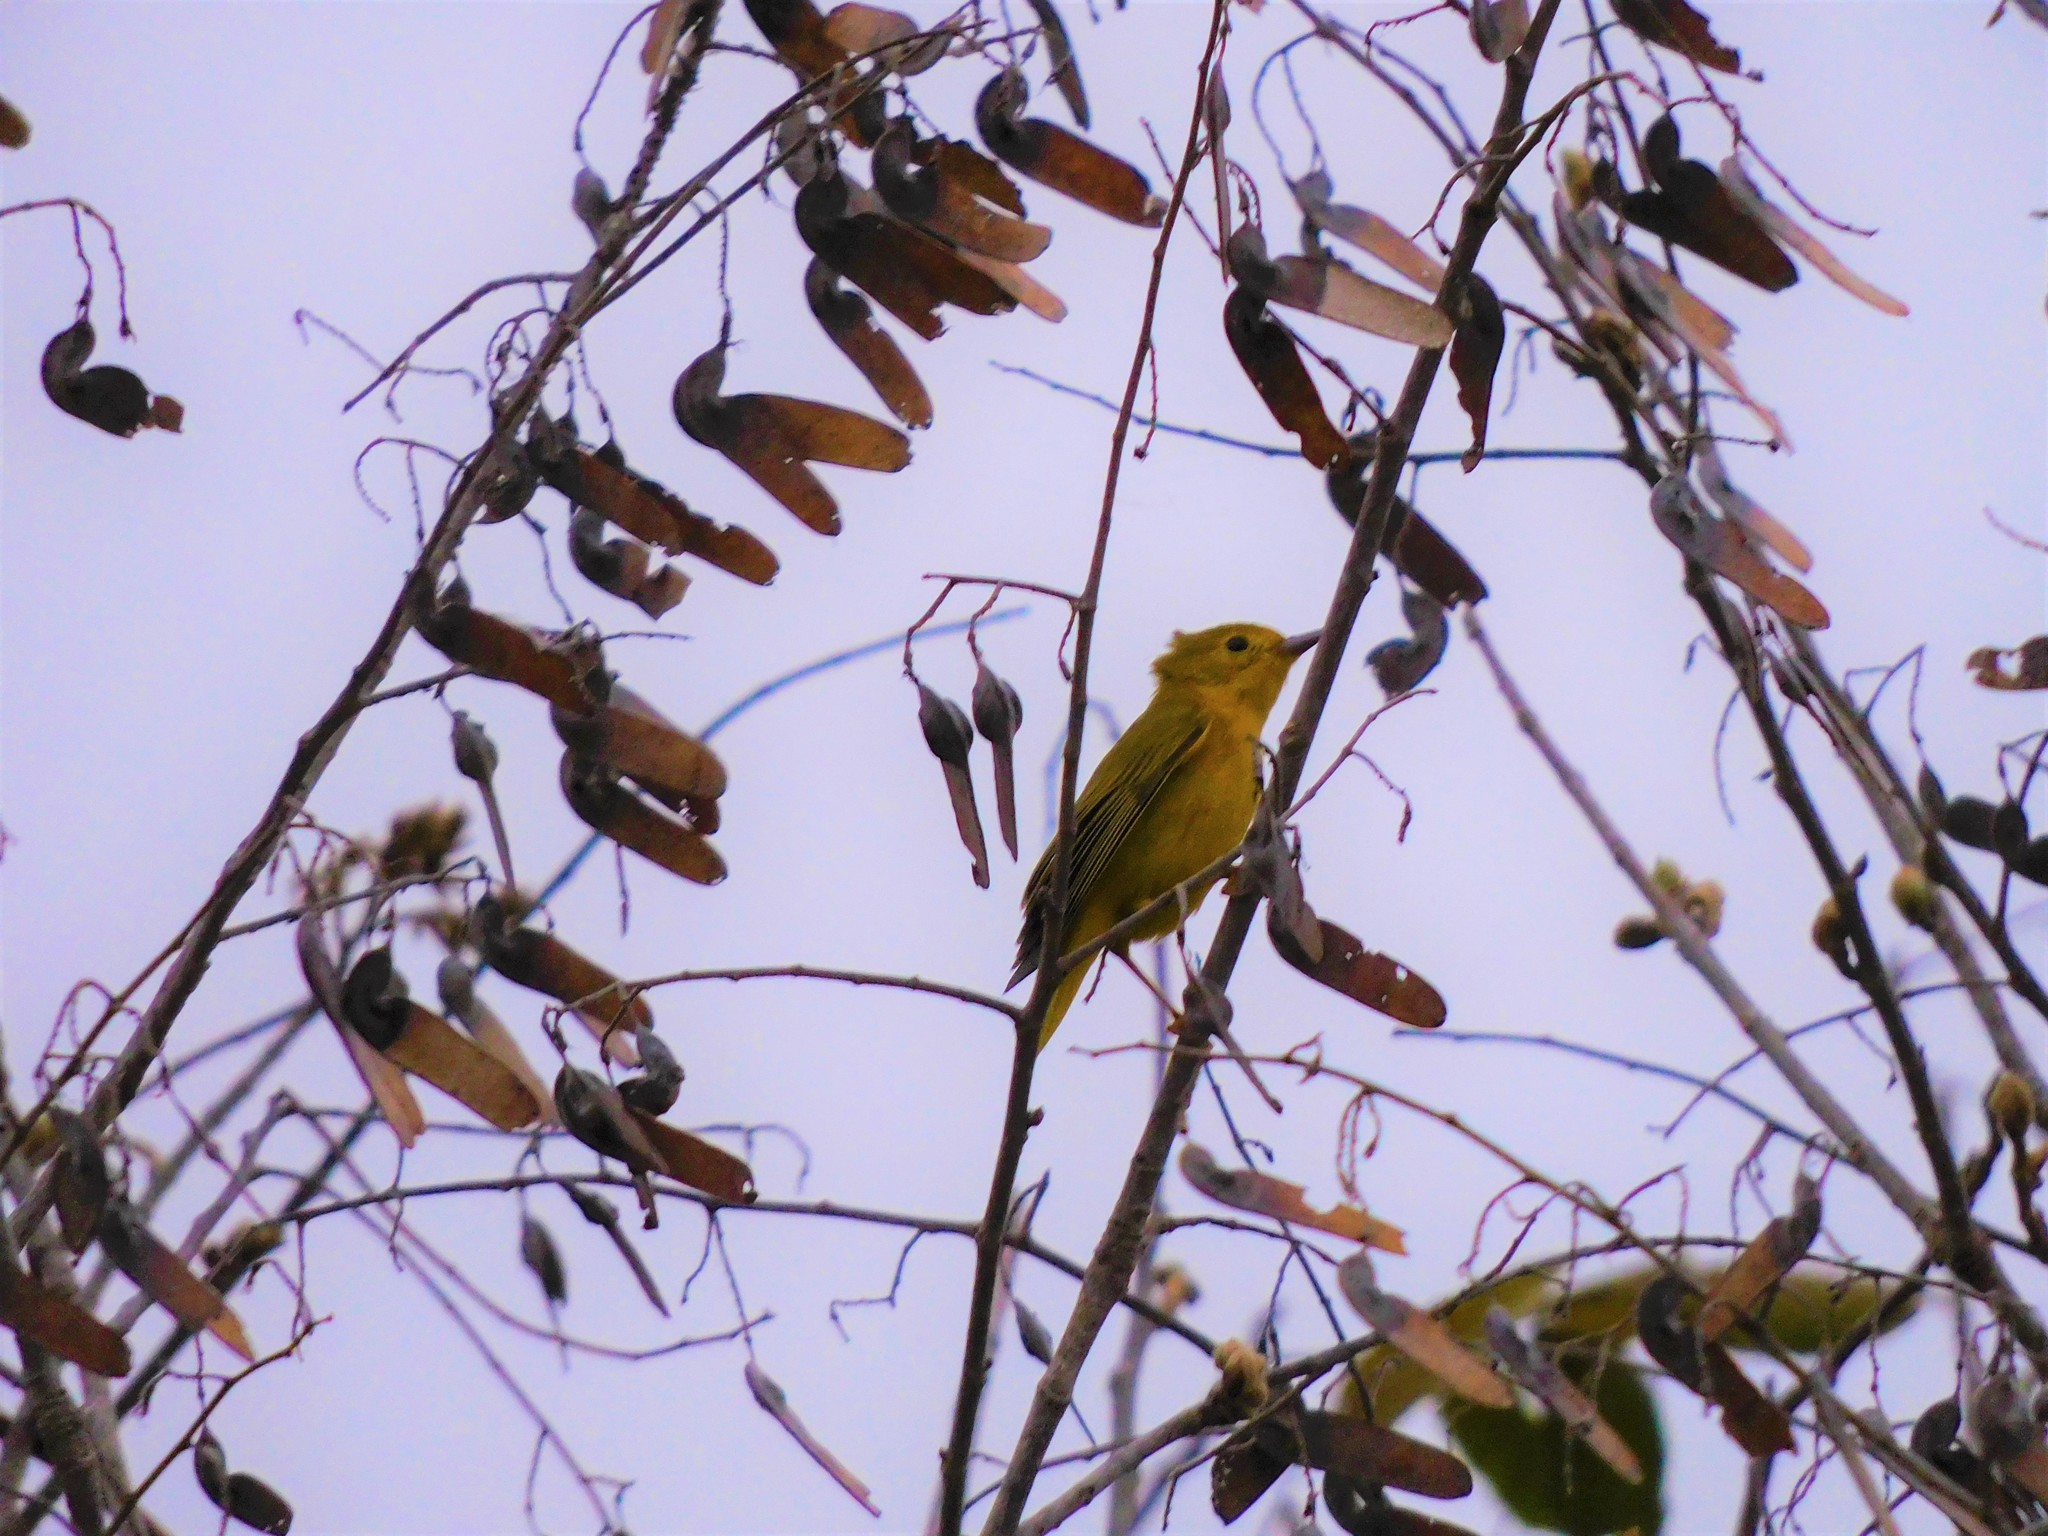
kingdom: Animalia
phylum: Chordata
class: Aves
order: Passeriformes
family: Parulidae
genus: Setophaga
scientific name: Setophaga petechia
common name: Yellow warbler
